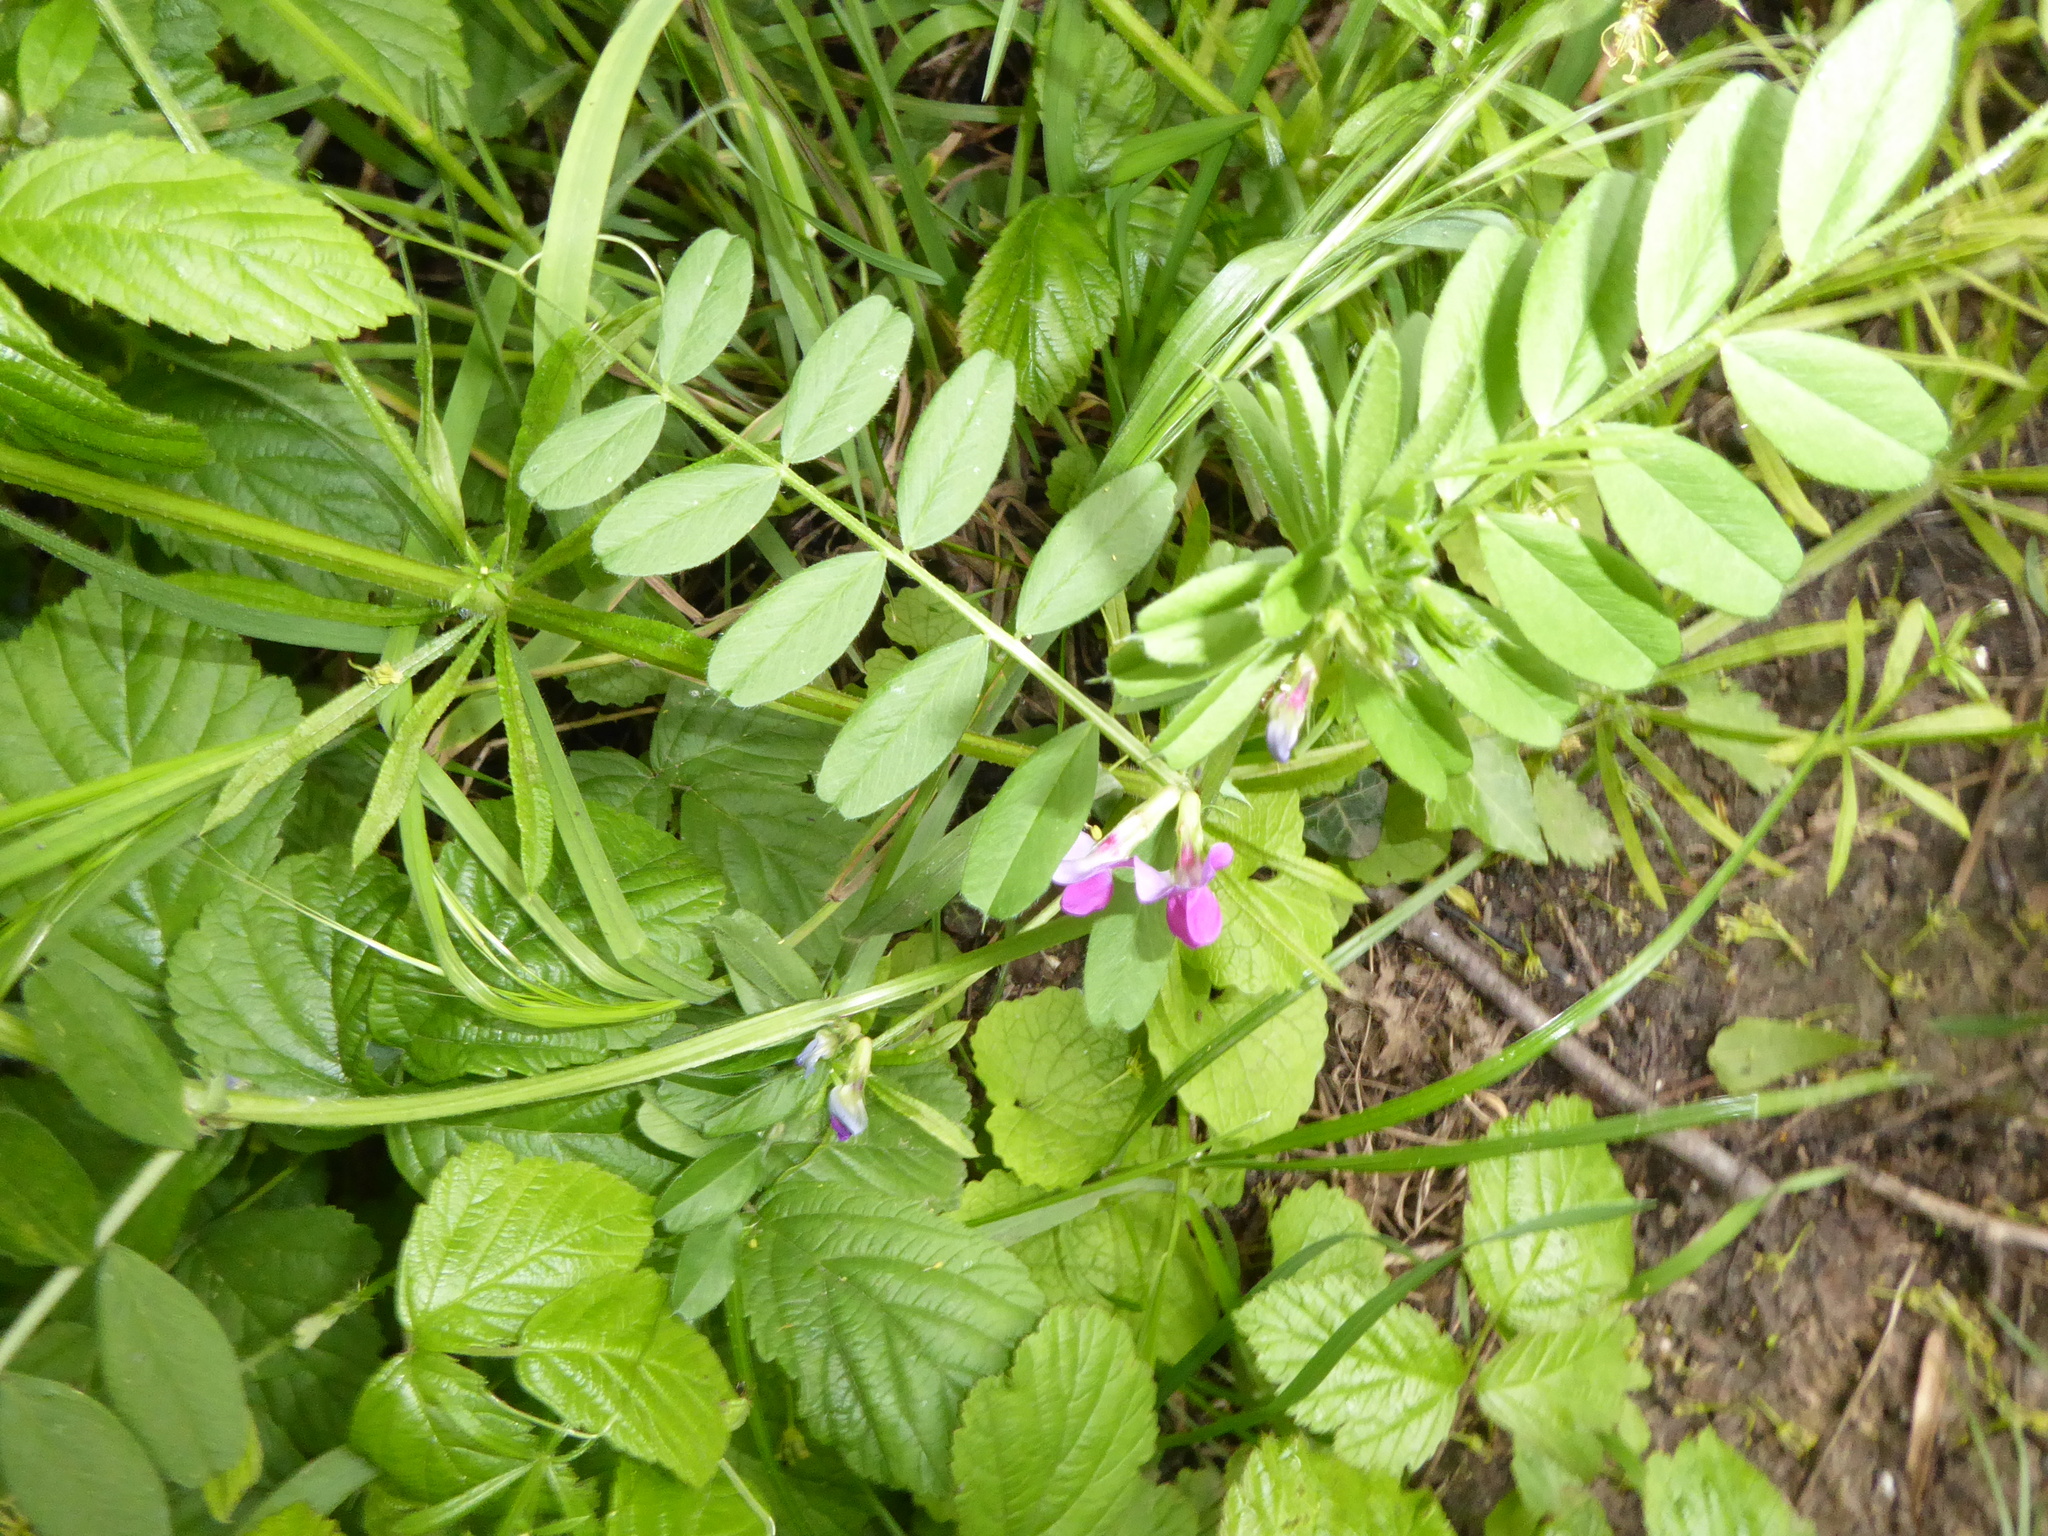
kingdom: Plantae
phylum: Tracheophyta
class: Magnoliopsida
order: Fabales
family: Fabaceae
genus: Vicia
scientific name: Vicia sativa
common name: Garden vetch
